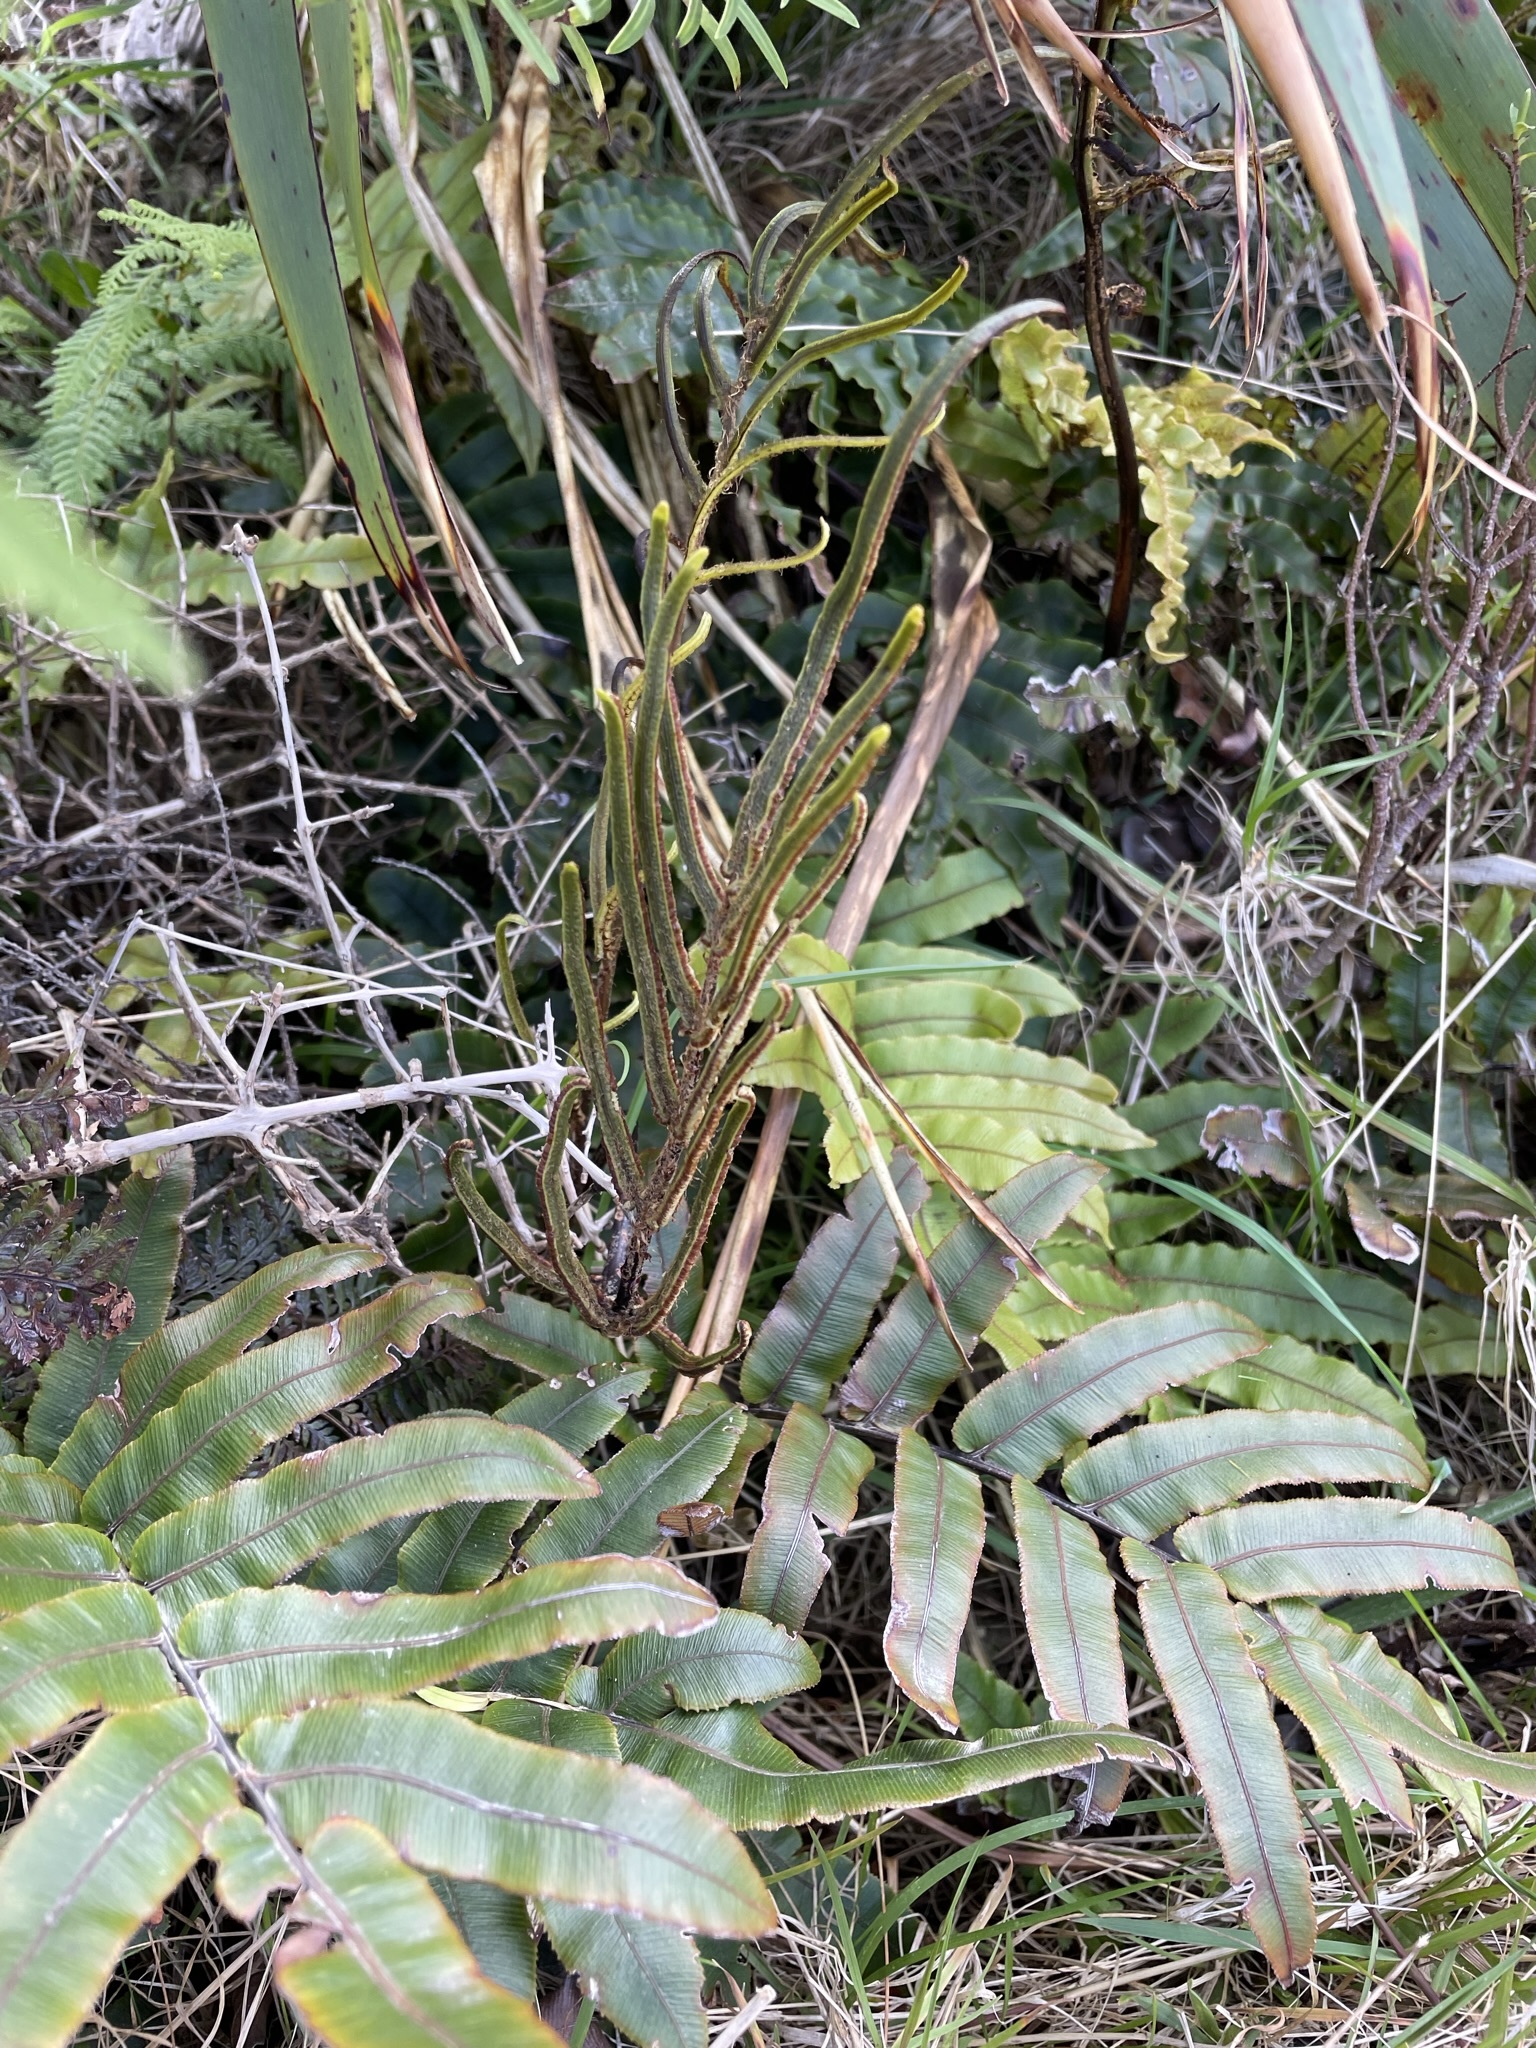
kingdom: Plantae
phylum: Tracheophyta
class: Polypodiopsida
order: Polypodiales
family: Blechnaceae
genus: Parablechnum
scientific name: Parablechnum procerum
